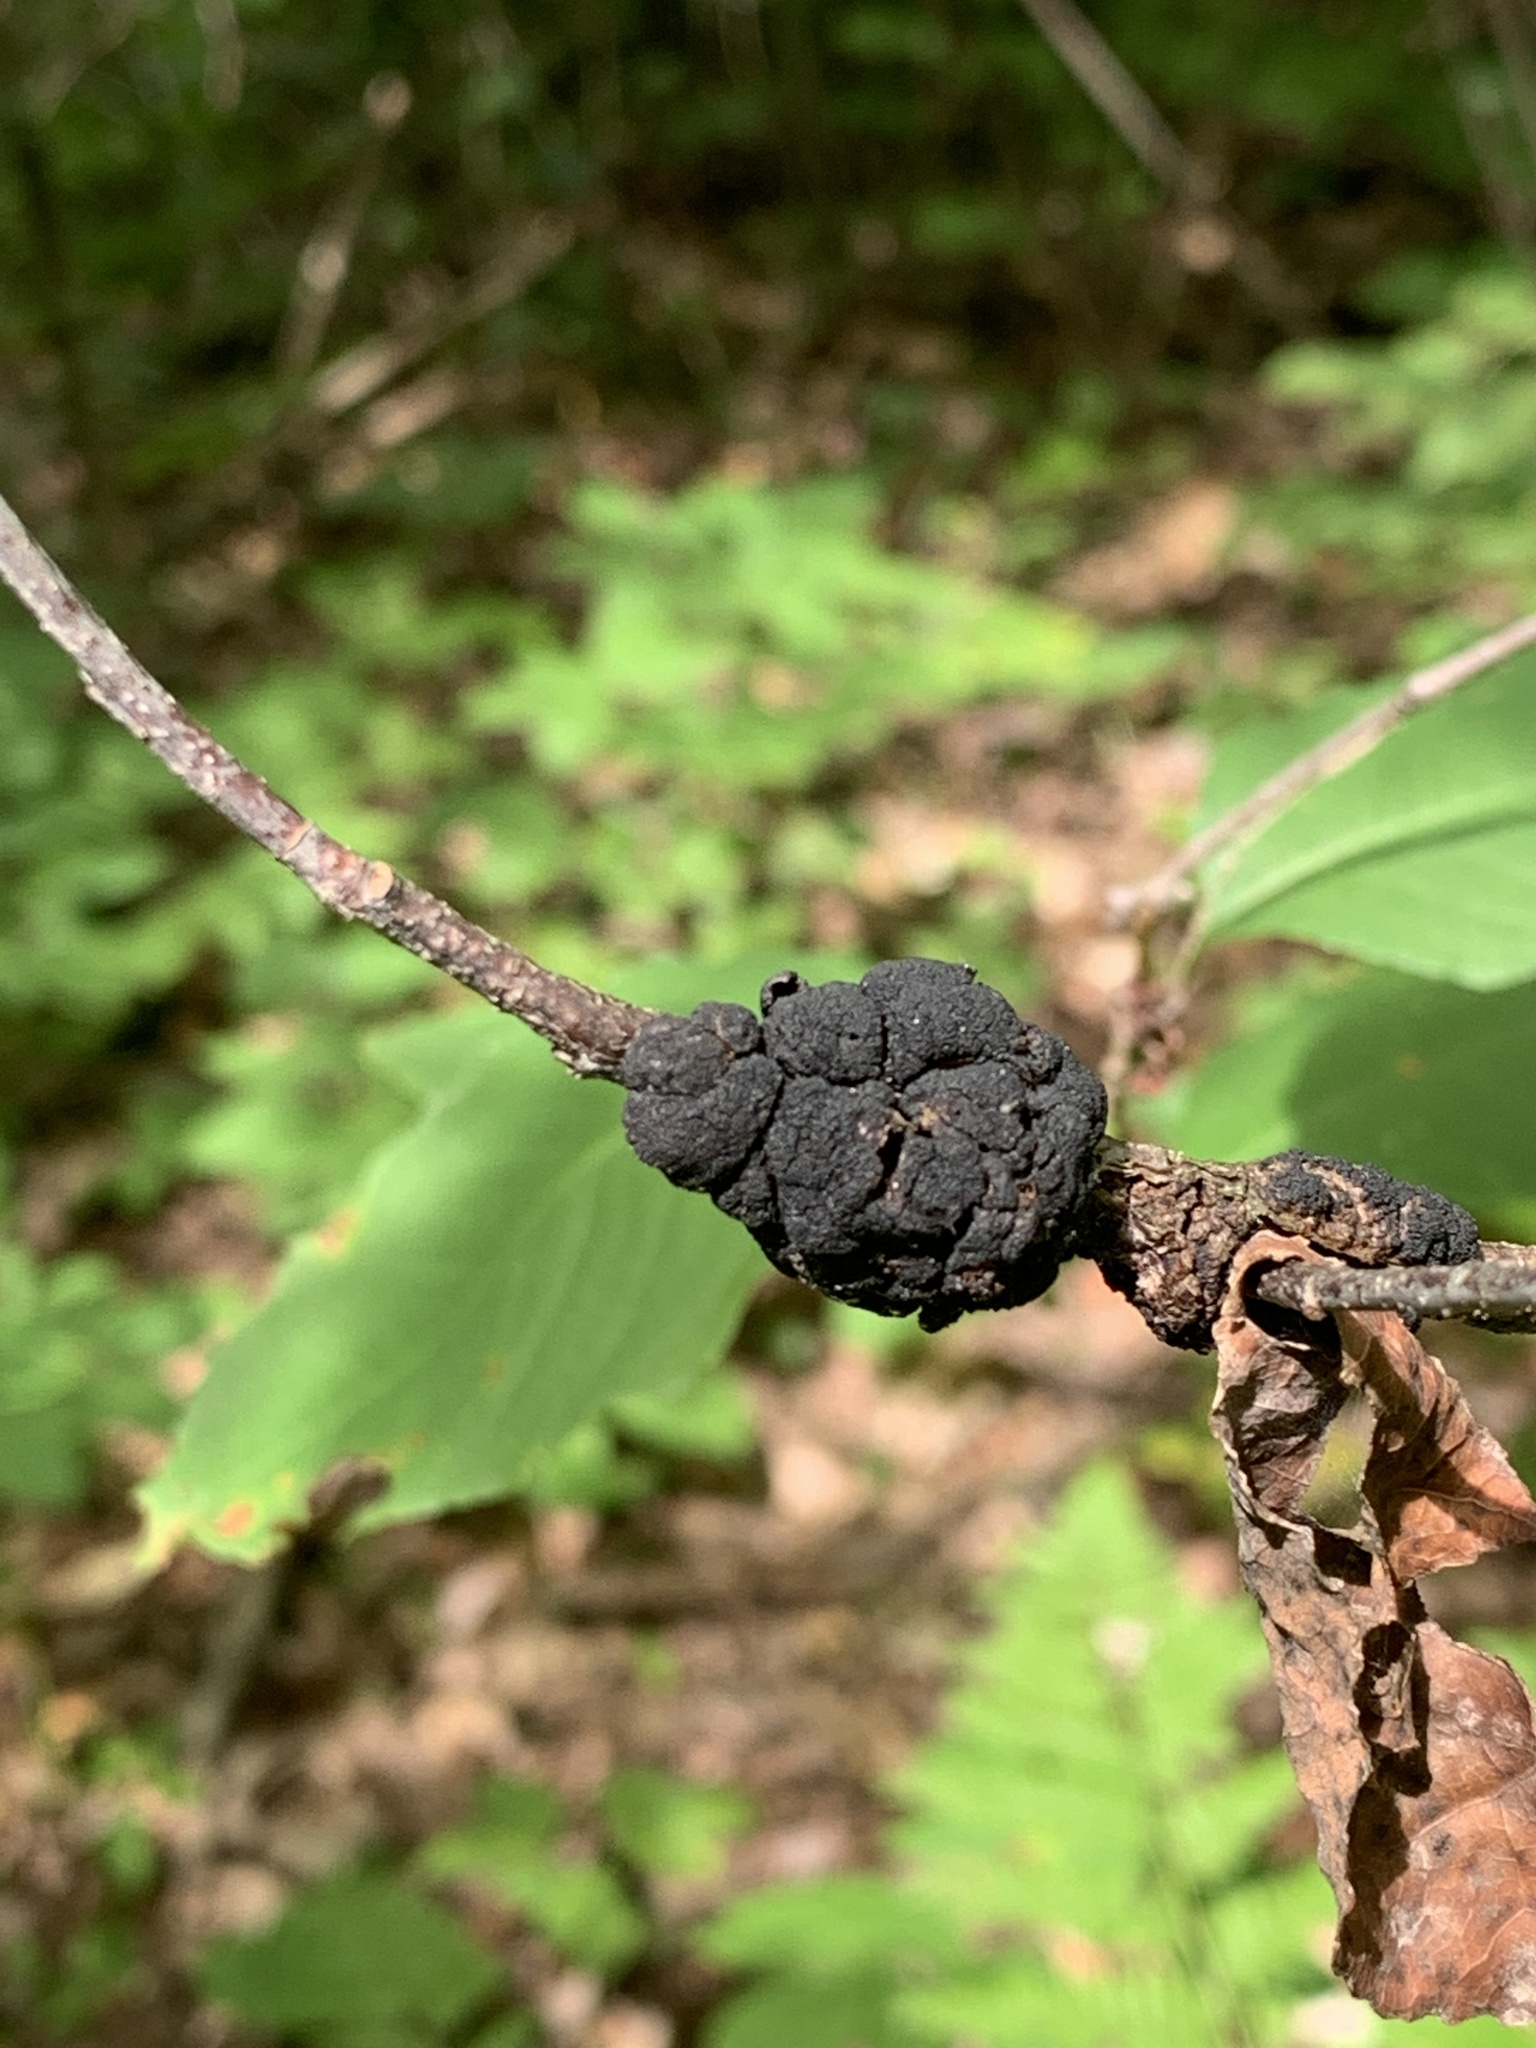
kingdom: Fungi
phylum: Ascomycota
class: Dothideomycetes
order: Venturiales
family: Venturiaceae
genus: Apiosporina
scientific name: Apiosporina morbosa
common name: Black knot
